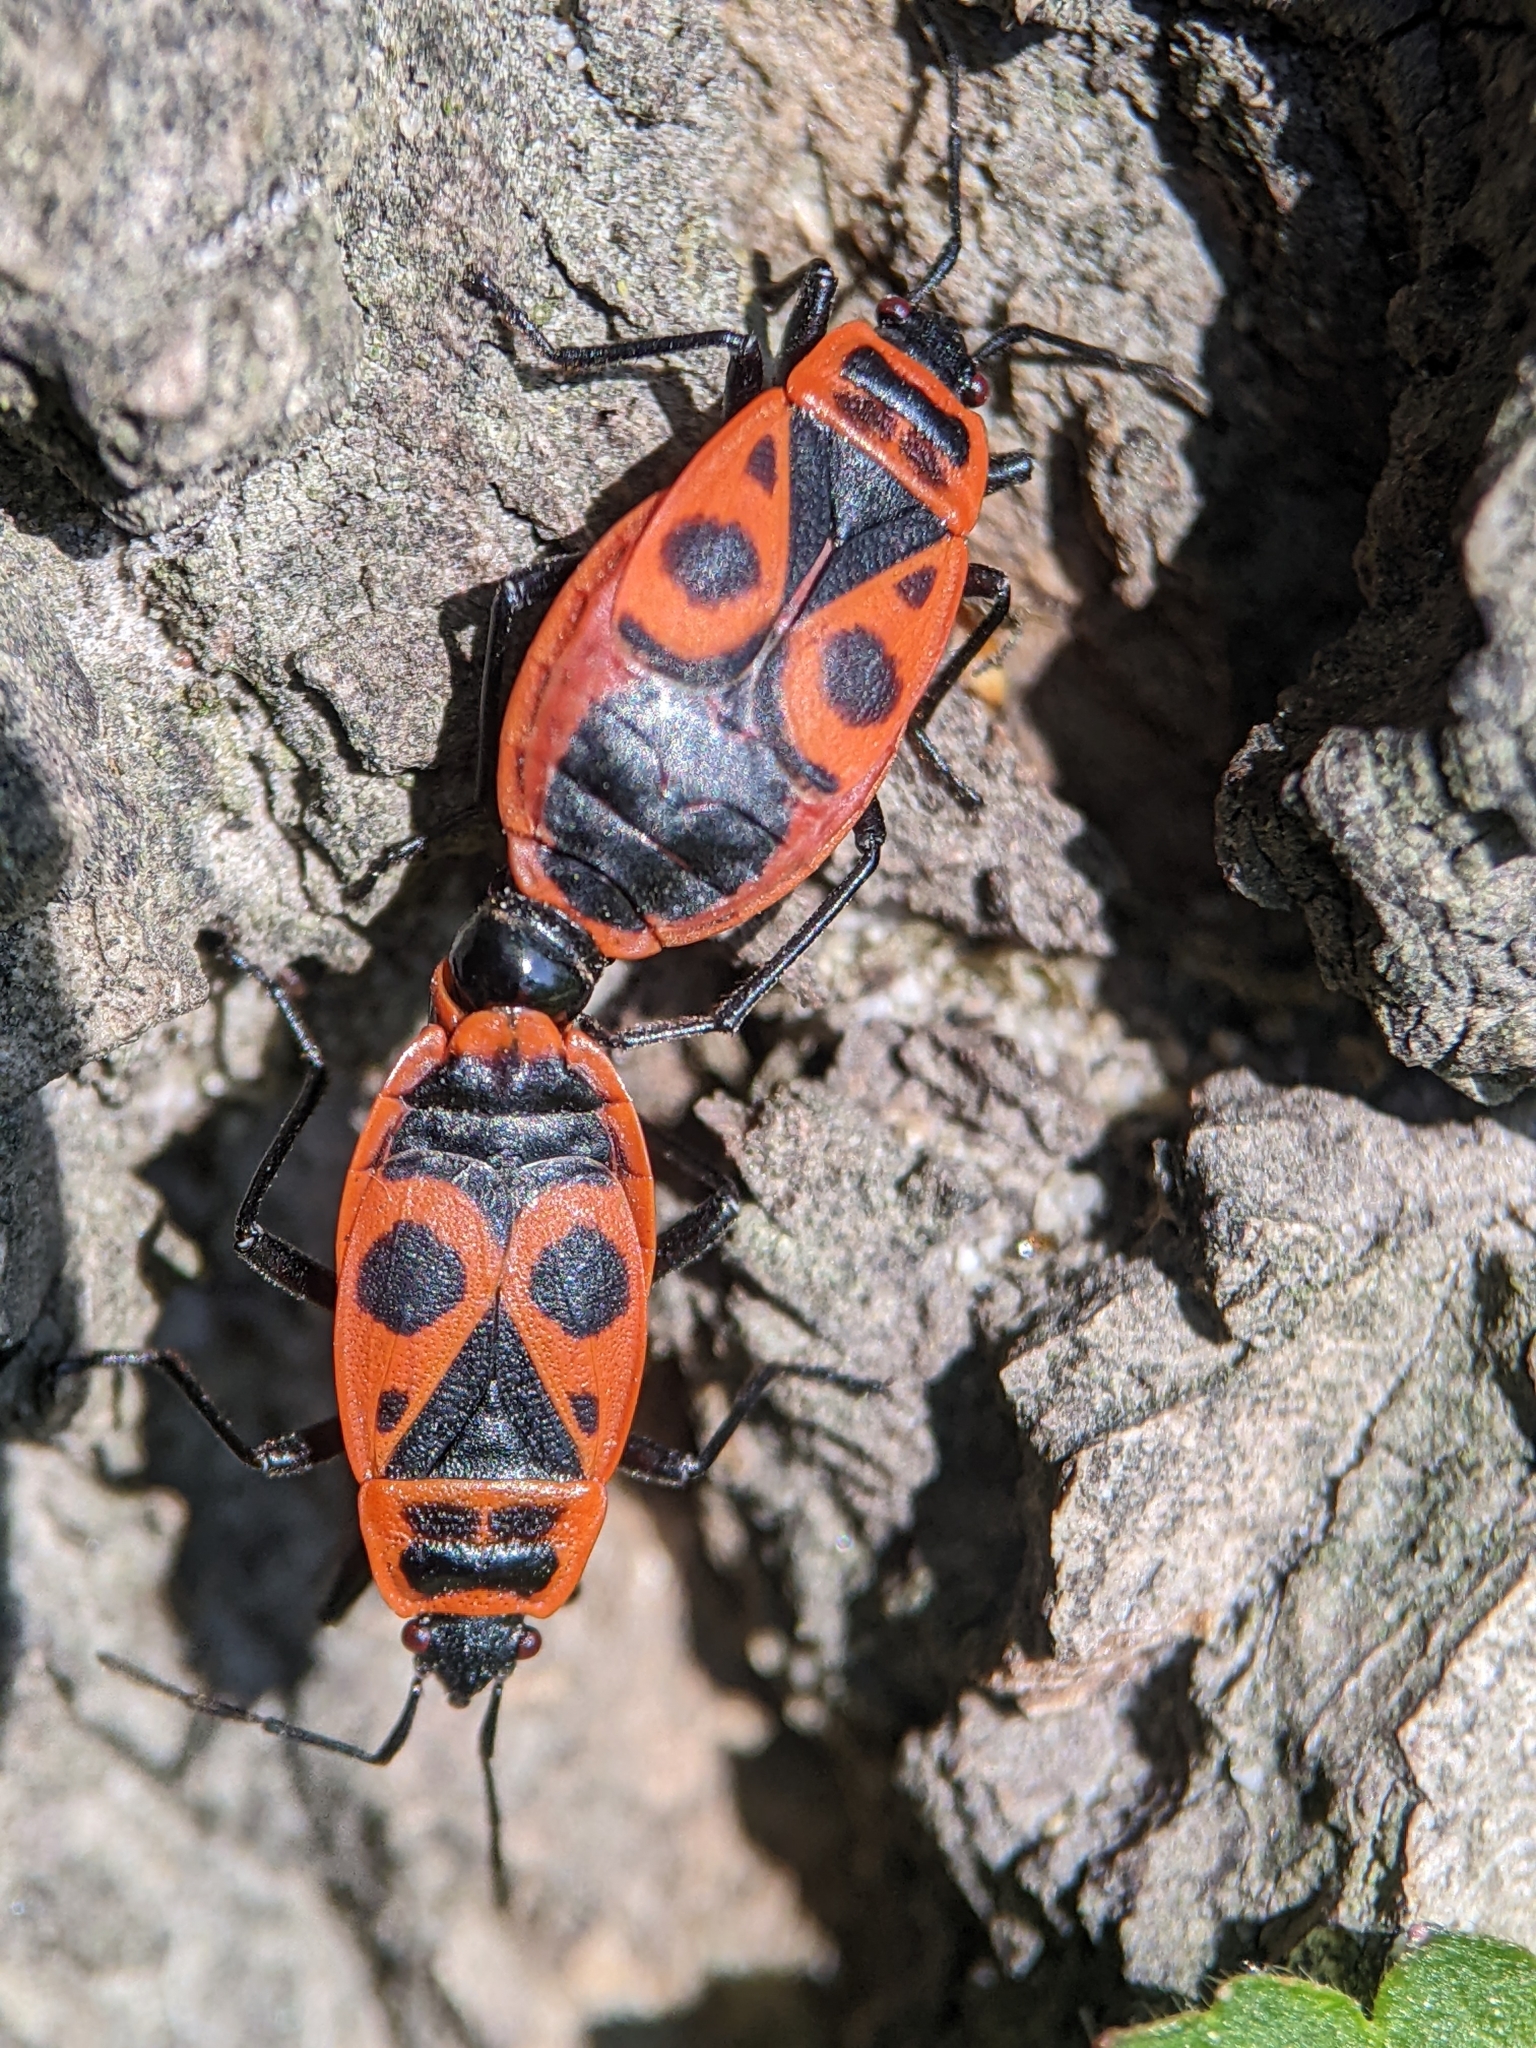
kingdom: Animalia
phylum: Arthropoda
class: Insecta
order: Hemiptera
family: Pyrrhocoridae
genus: Pyrrhocoris
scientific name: Pyrrhocoris apterus
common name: Firebug
